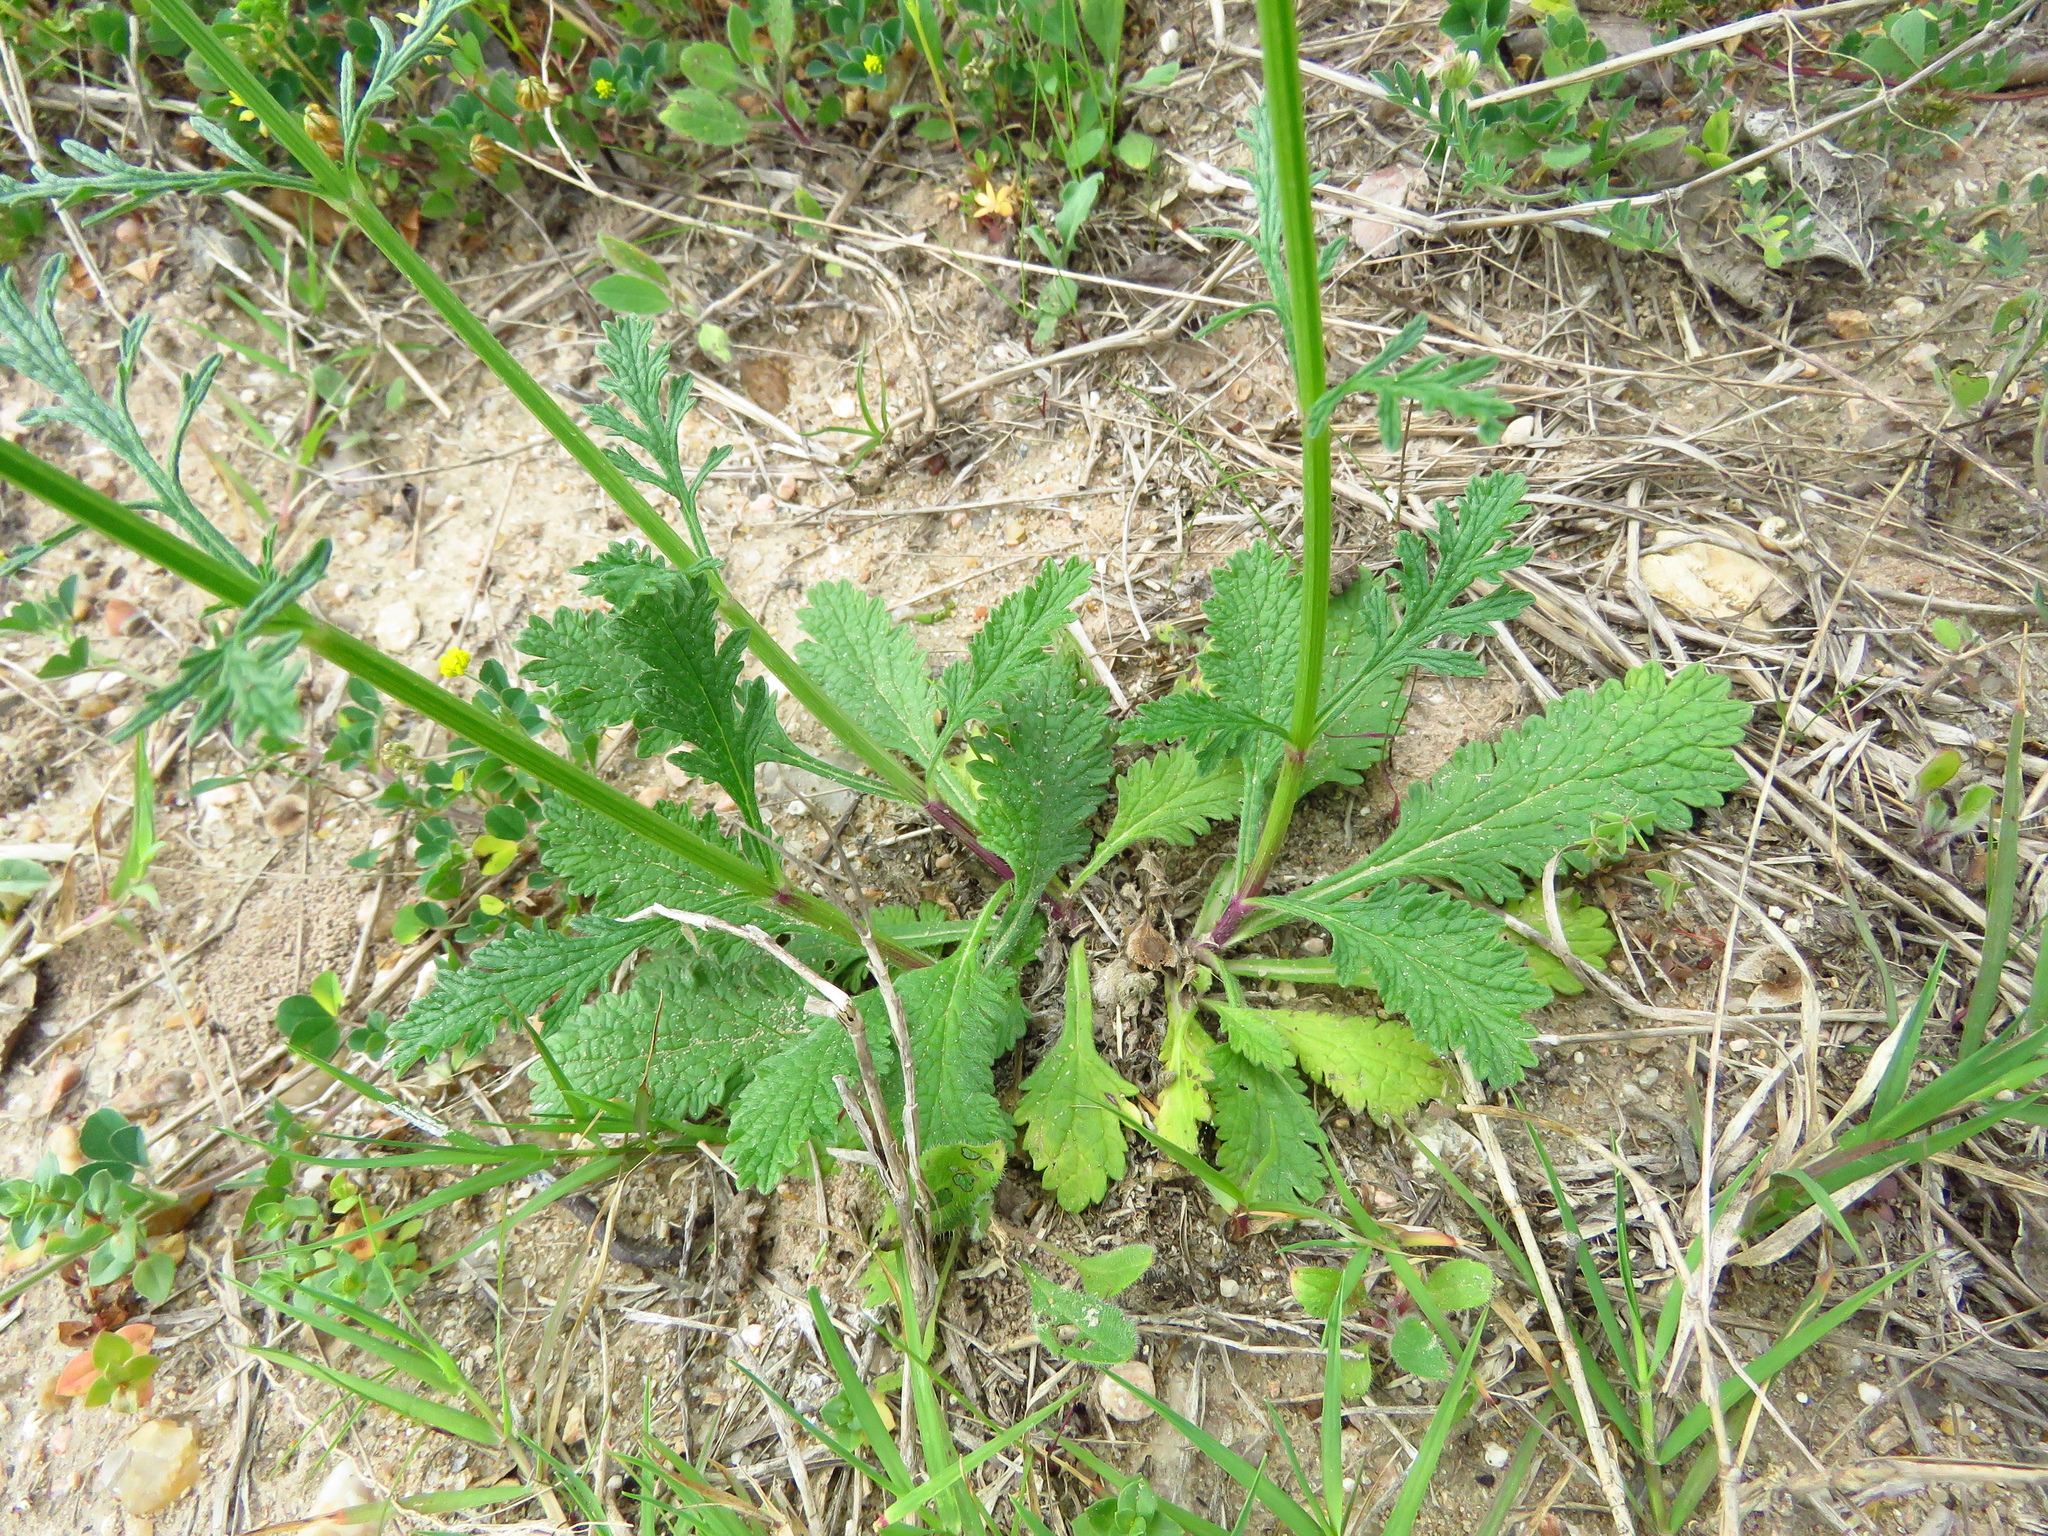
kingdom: Plantae
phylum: Tracheophyta
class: Magnoliopsida
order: Lamiales
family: Verbenaceae
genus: Verbena
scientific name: Verbena halei
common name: Texas vervain
